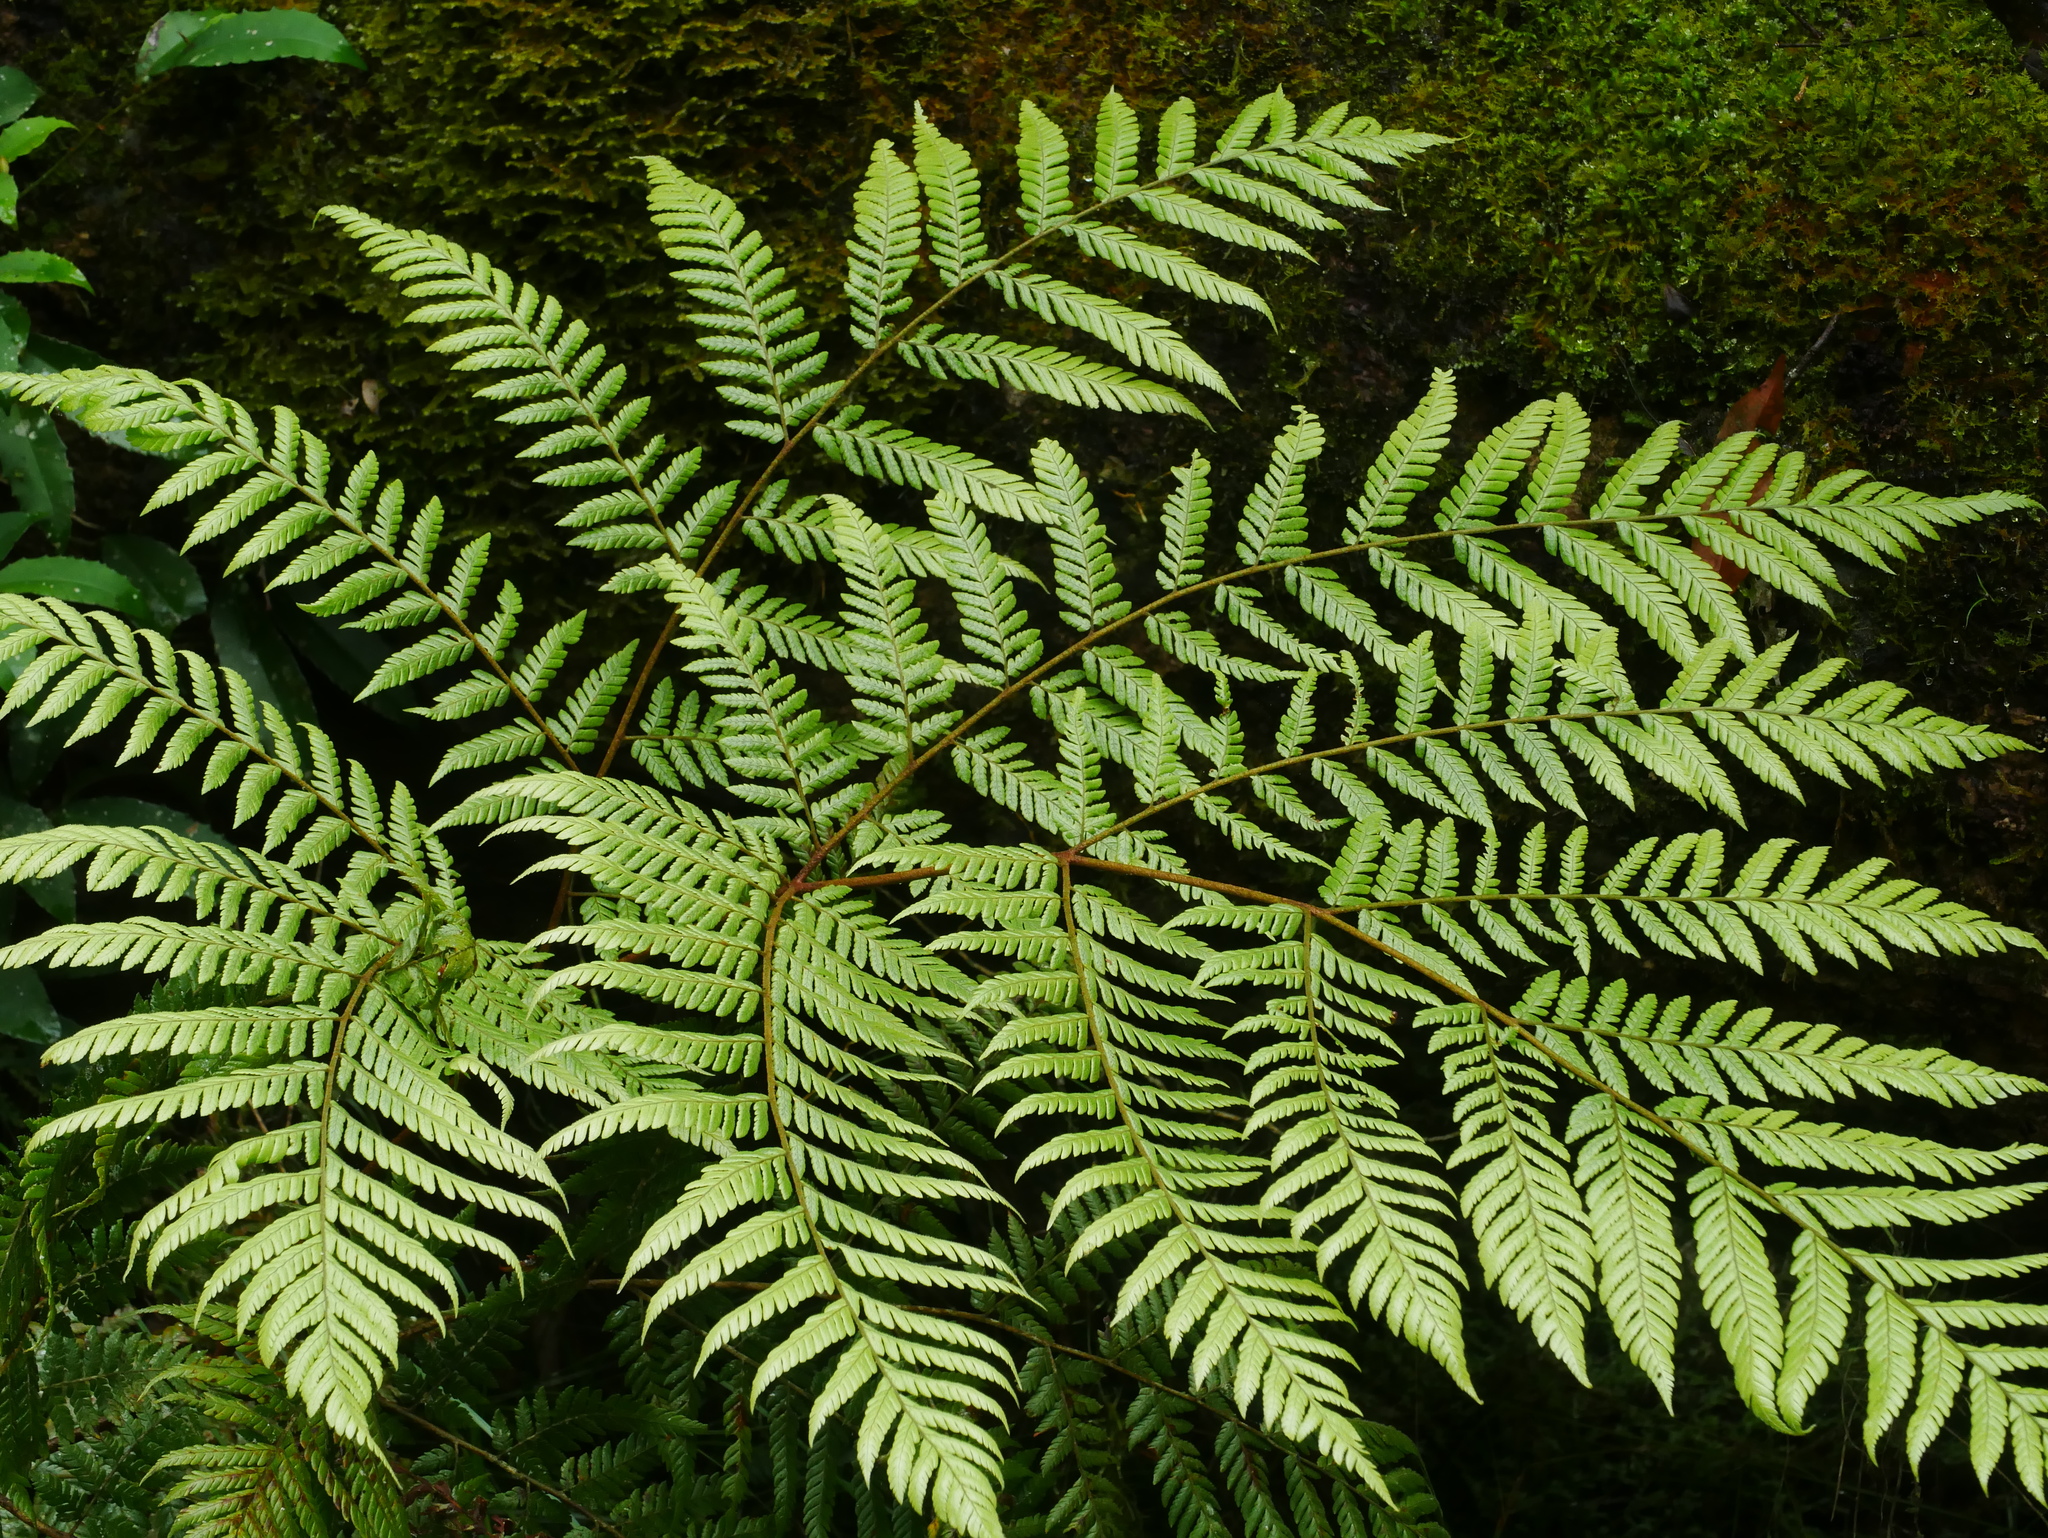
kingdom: Plantae
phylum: Tracheophyta
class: Polypodiopsida
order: Polypodiales
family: Dryopteridaceae
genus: Ctenitis
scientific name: Ctenitis subglandulosa
